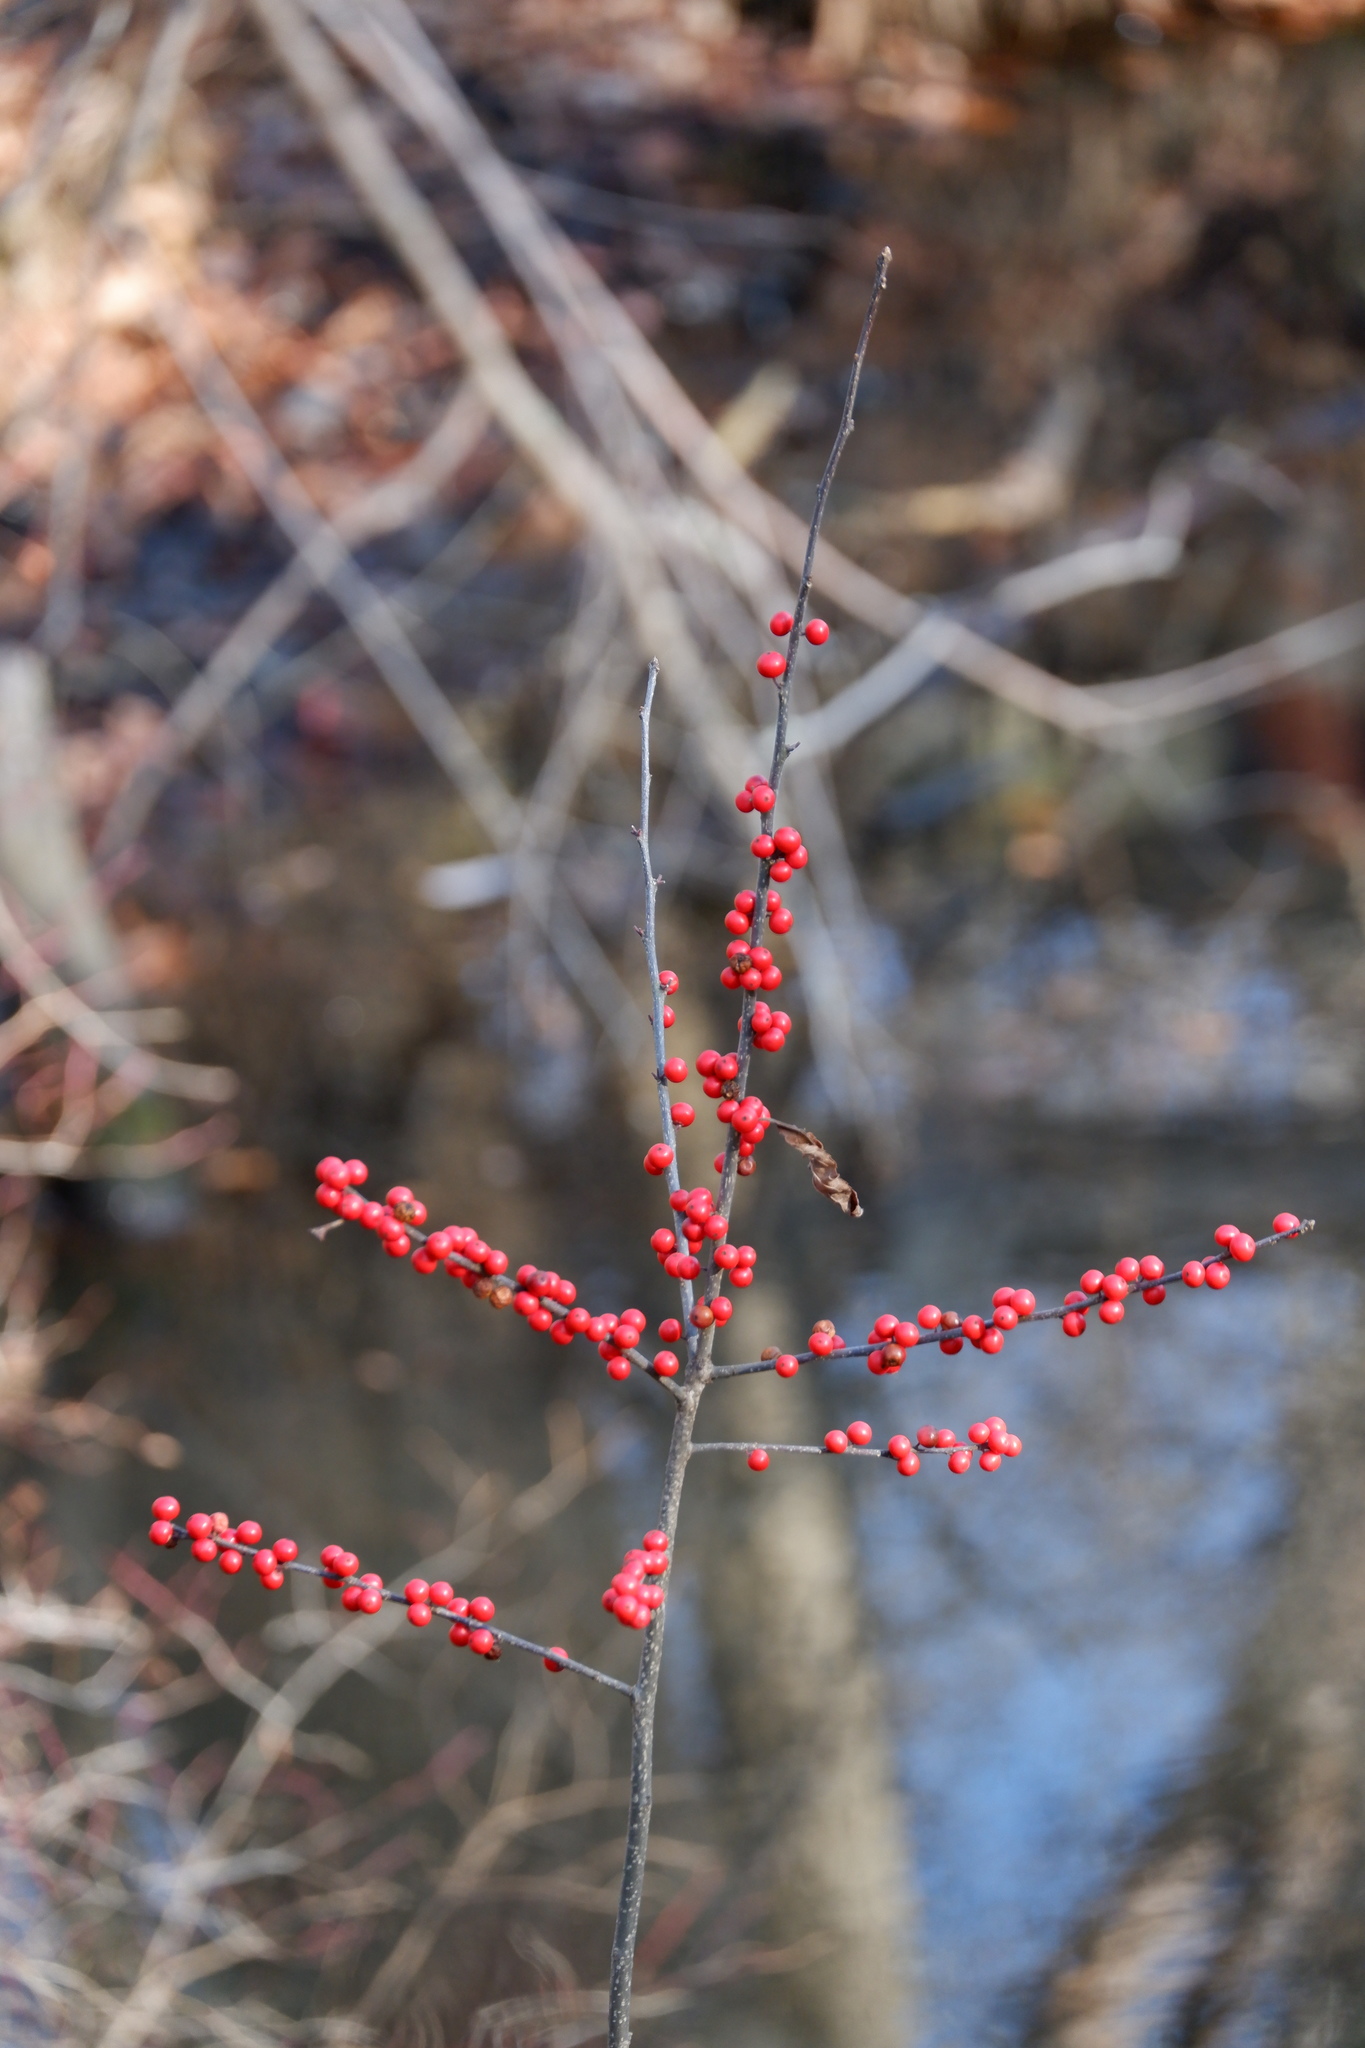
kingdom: Plantae
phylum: Tracheophyta
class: Magnoliopsida
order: Aquifoliales
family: Aquifoliaceae
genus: Ilex
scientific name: Ilex verticillata
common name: Virginia winterberry
